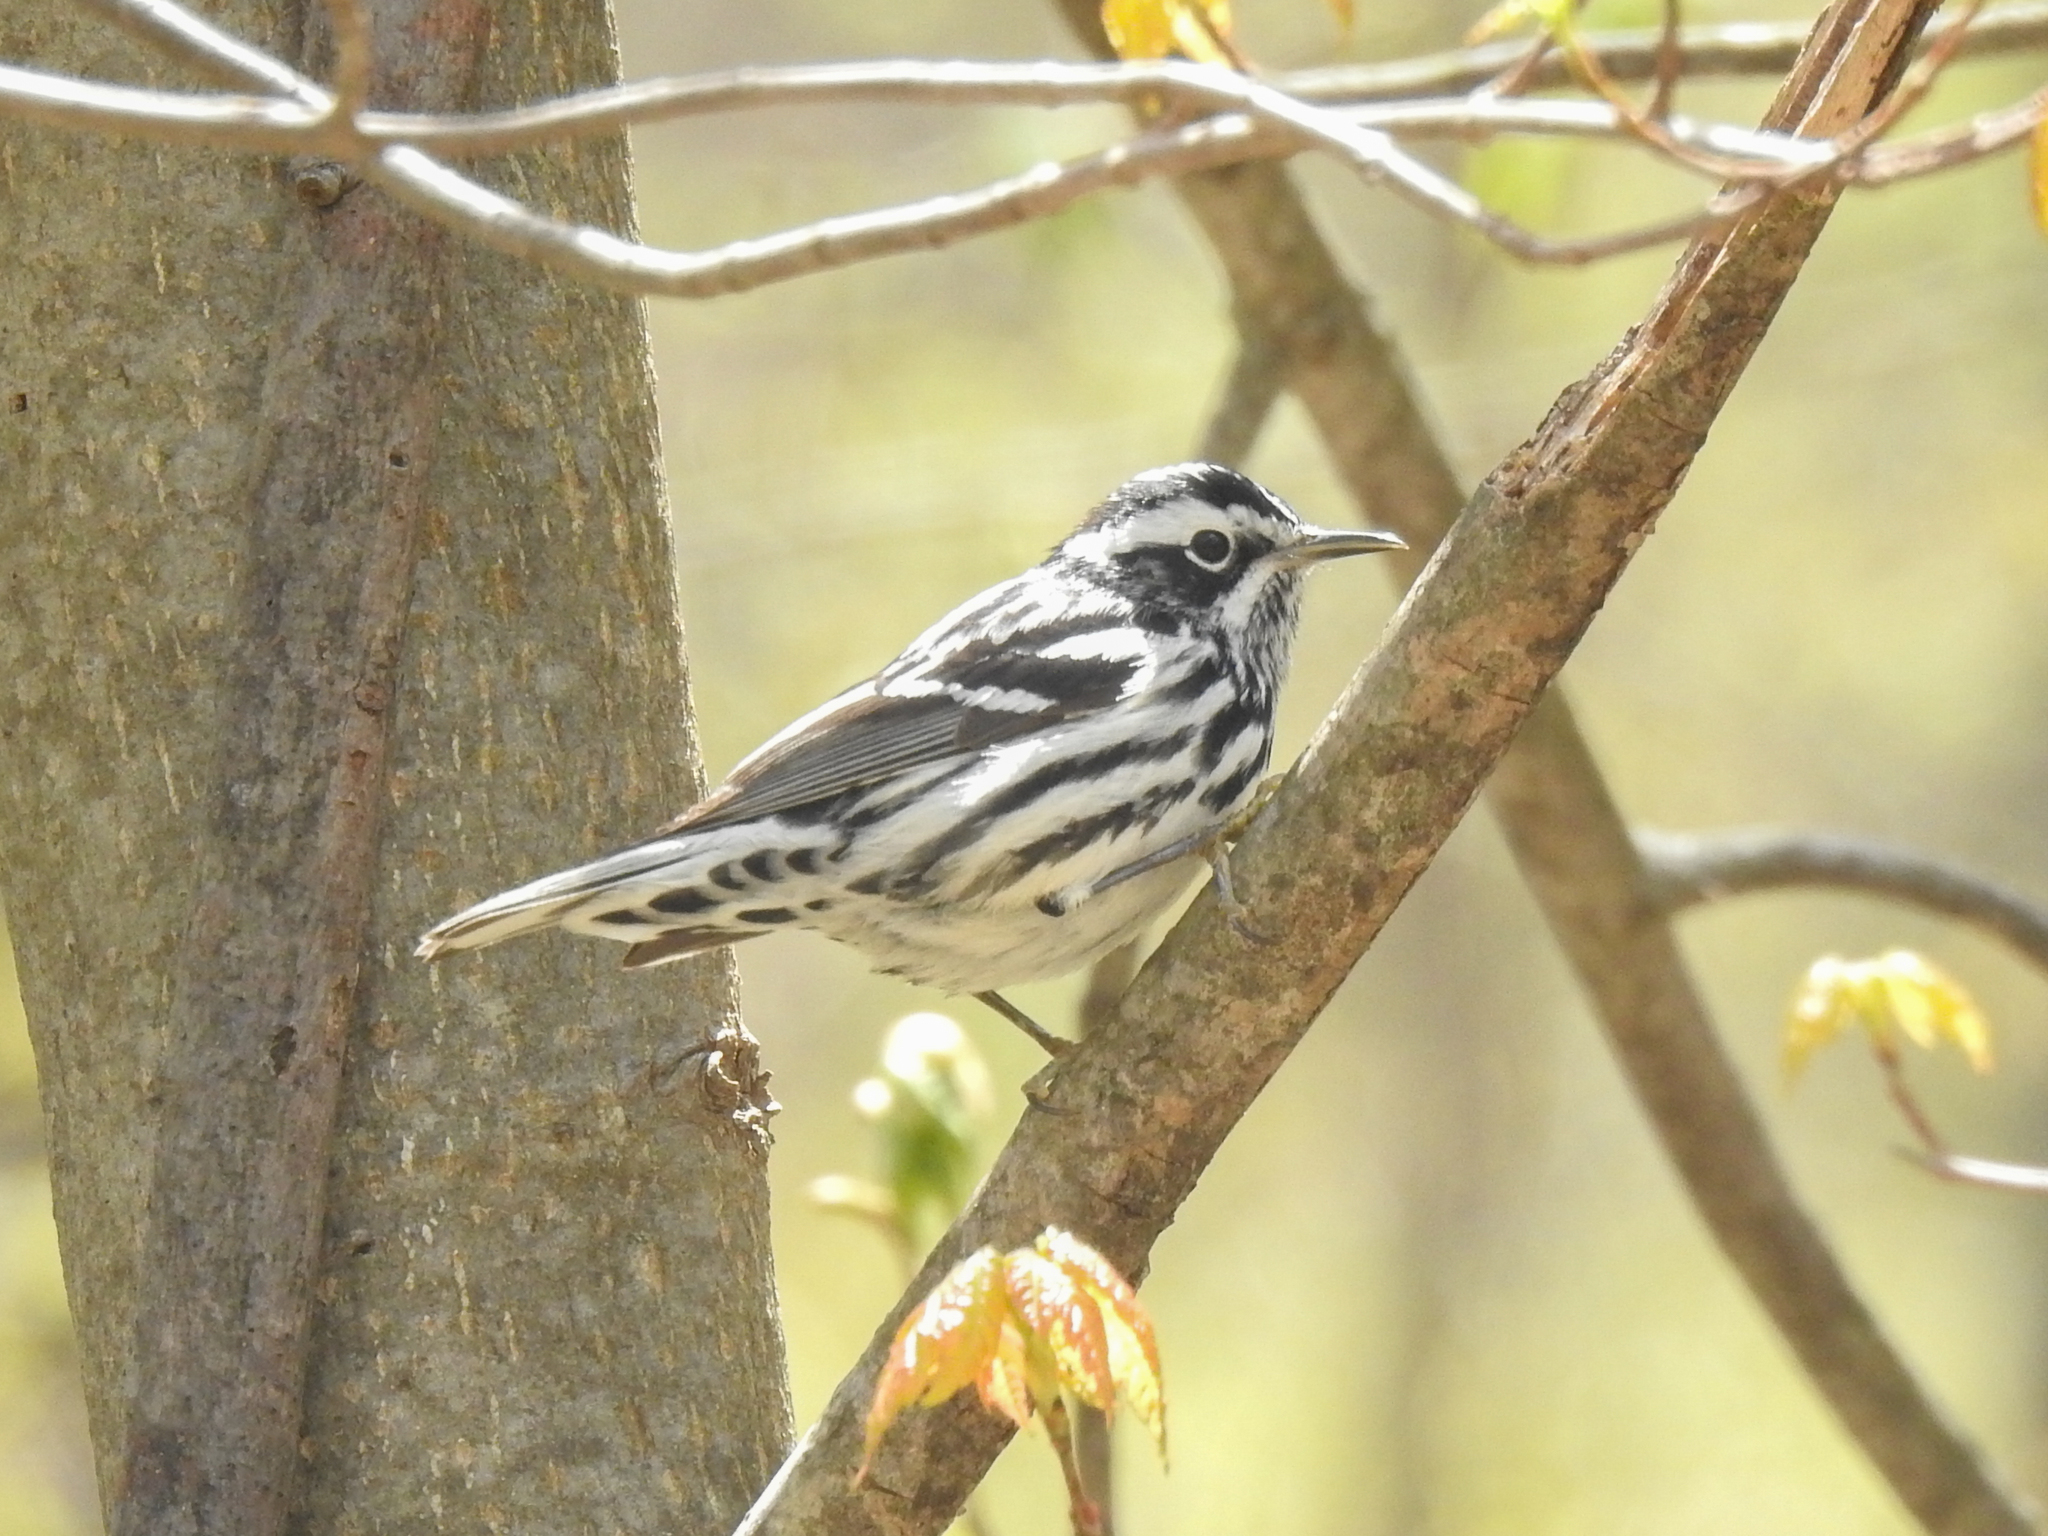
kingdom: Animalia
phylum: Chordata
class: Aves
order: Passeriformes
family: Parulidae
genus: Mniotilta
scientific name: Mniotilta varia
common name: Black-and-white warbler
